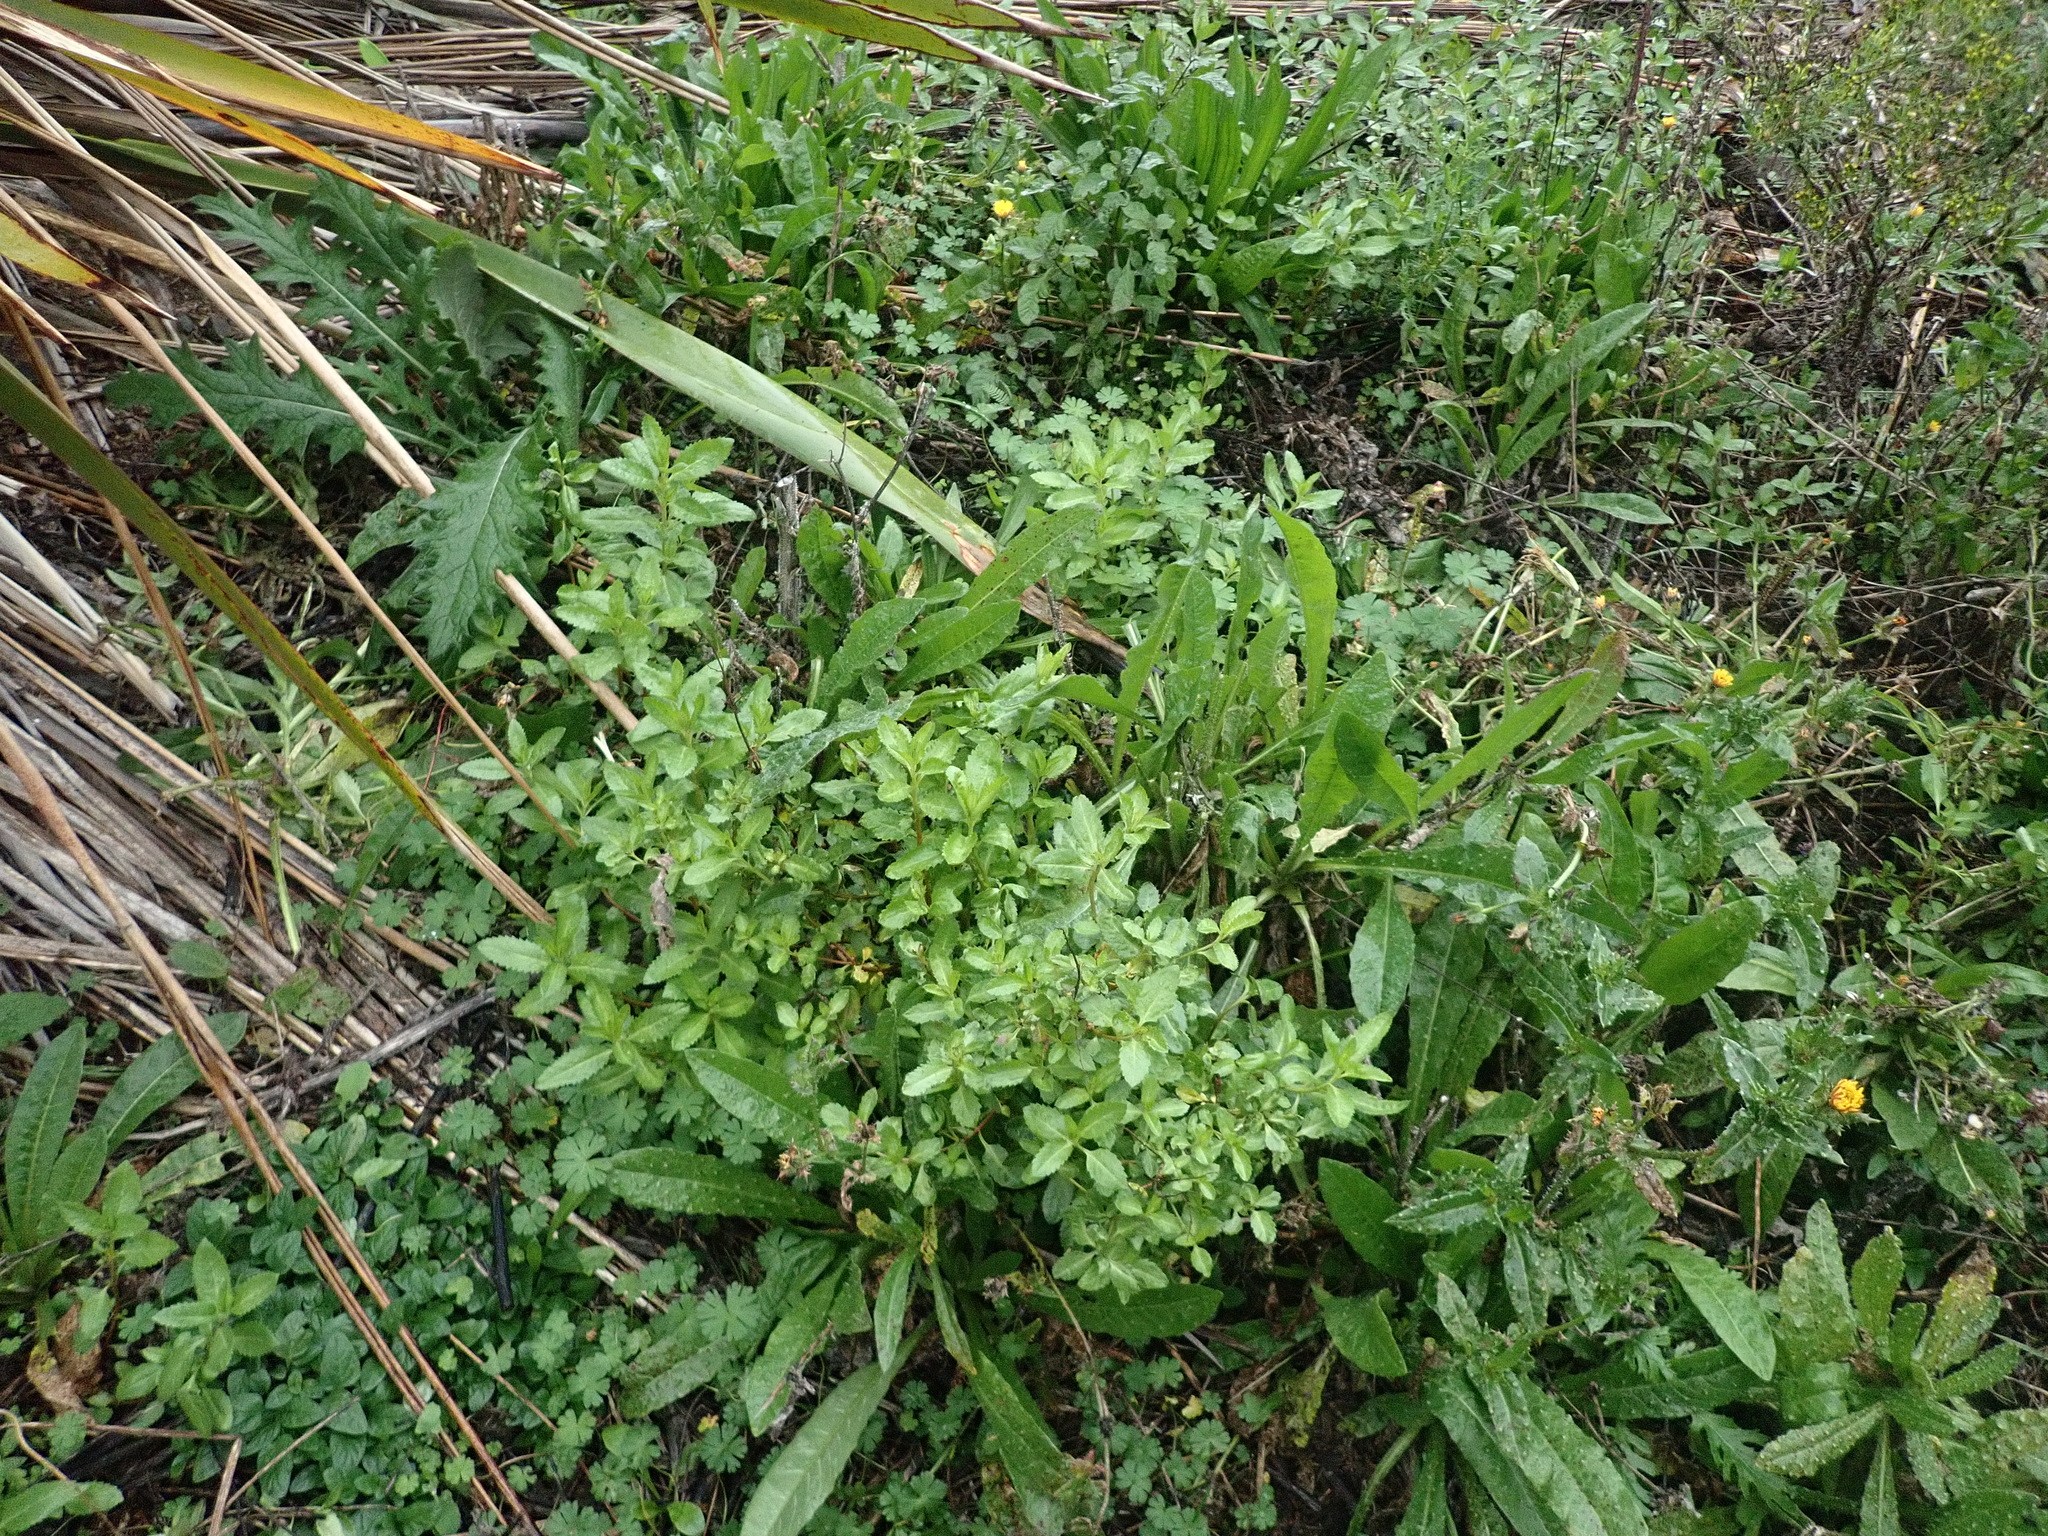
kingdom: Plantae
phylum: Tracheophyta
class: Magnoliopsida
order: Asterales
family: Asteraceae
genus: Helminthotheca
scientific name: Helminthotheca echioides
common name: Ox-tongue
